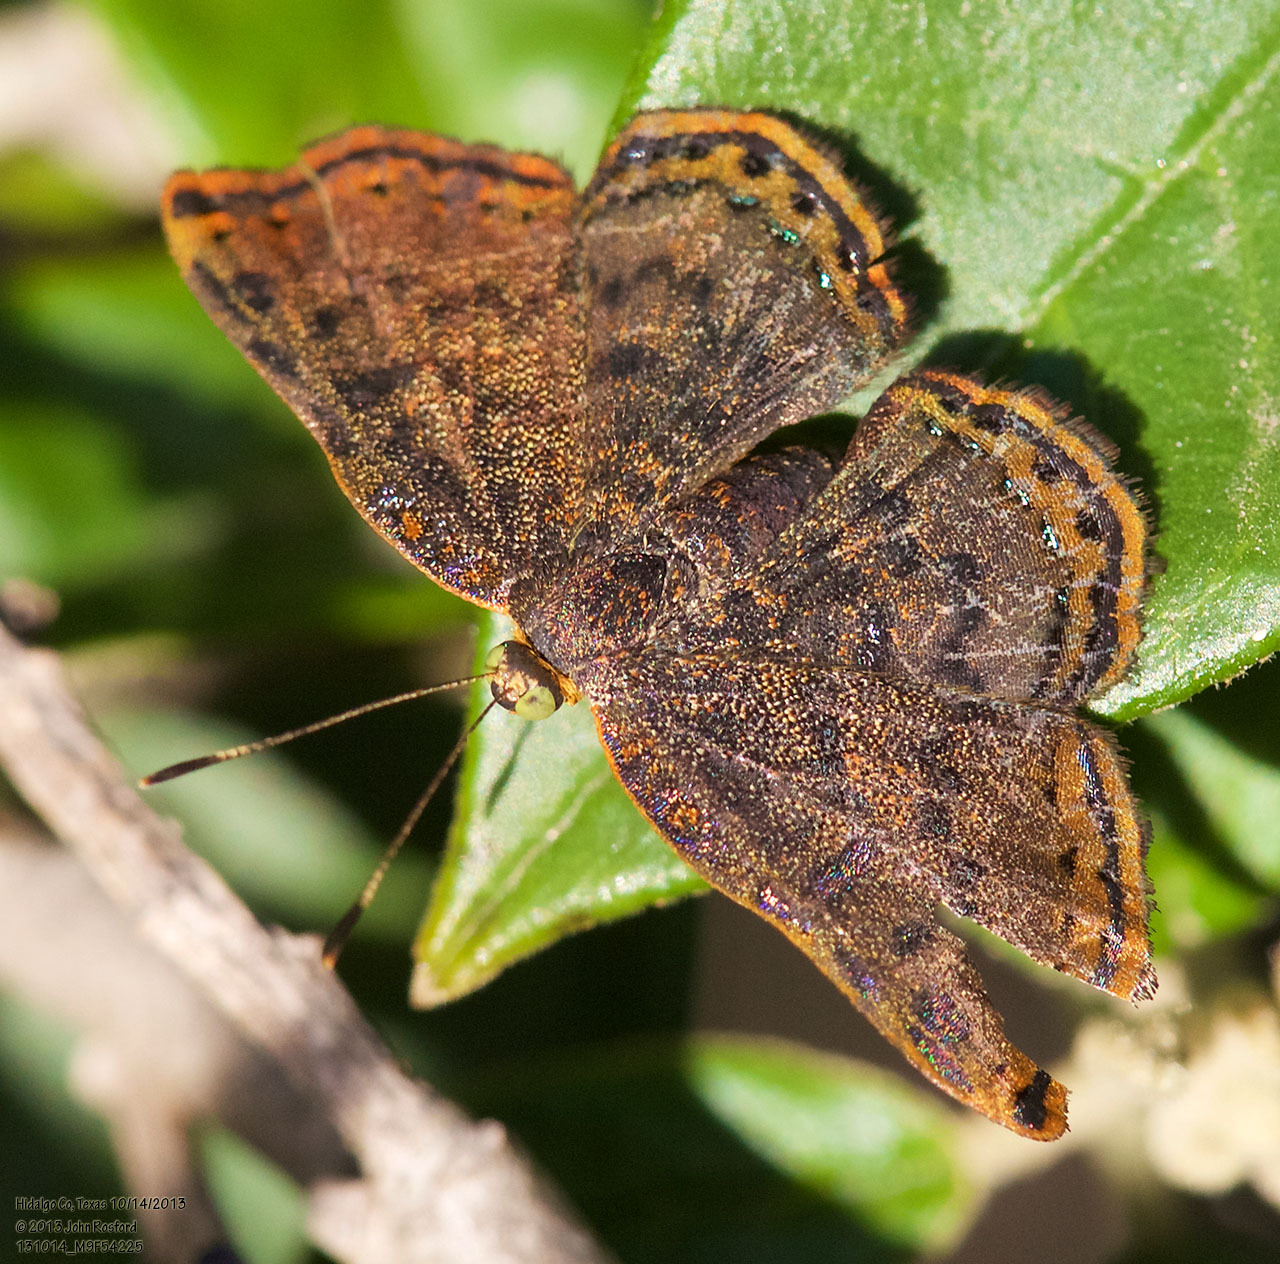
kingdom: Animalia
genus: Caria
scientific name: Caria ino
